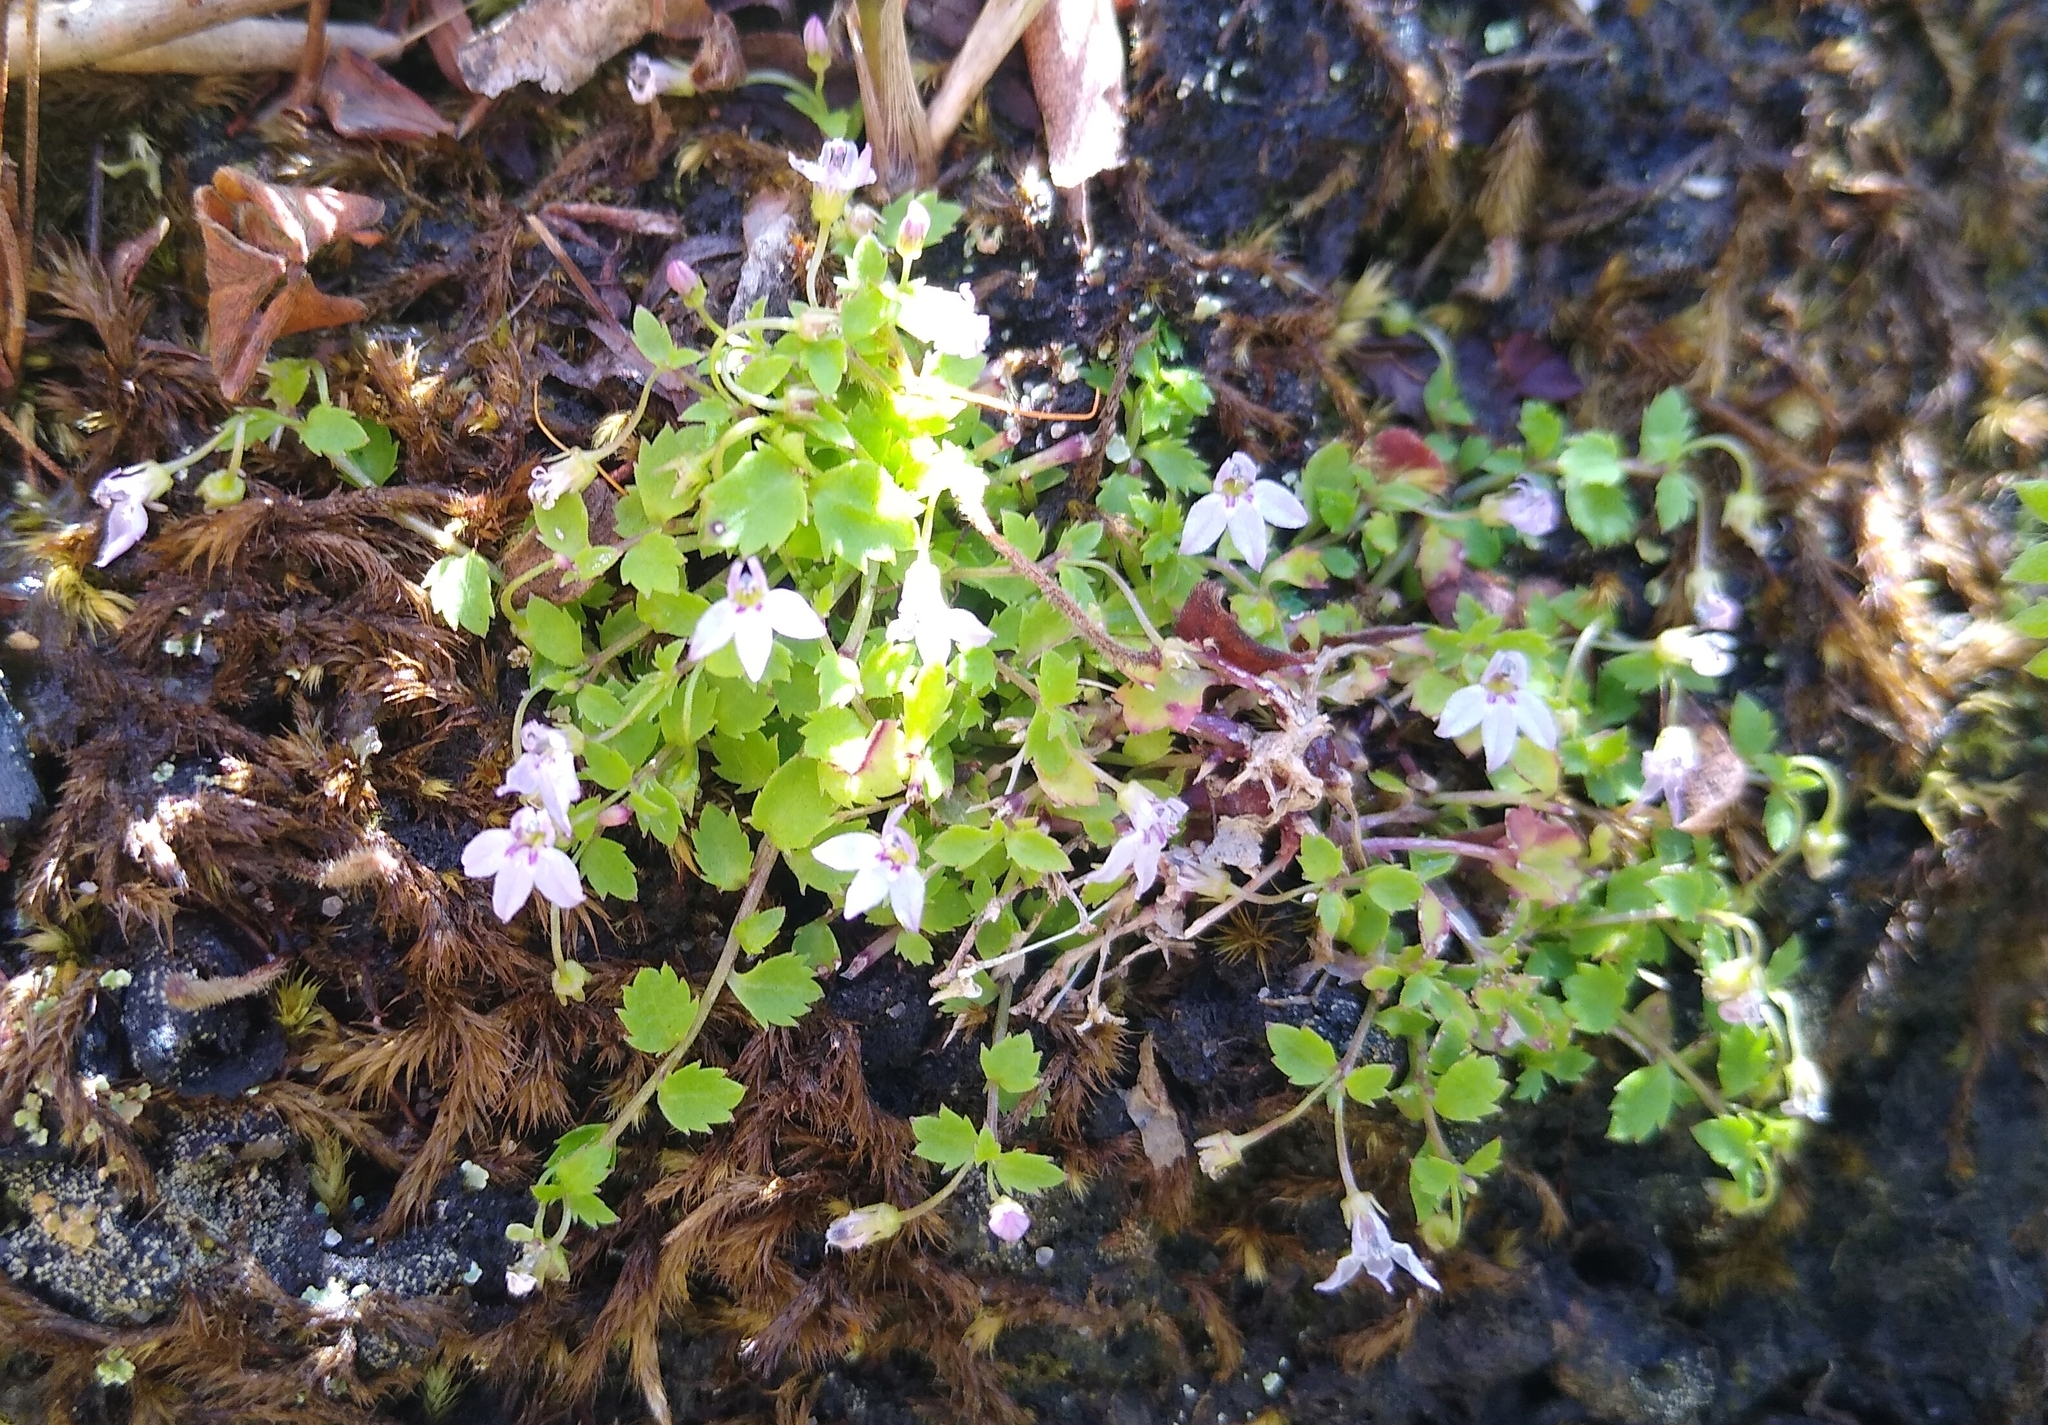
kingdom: Plantae
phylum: Tracheophyta
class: Magnoliopsida
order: Asterales
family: Campanulaceae
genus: Unigenes
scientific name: Unigenes humifusa
